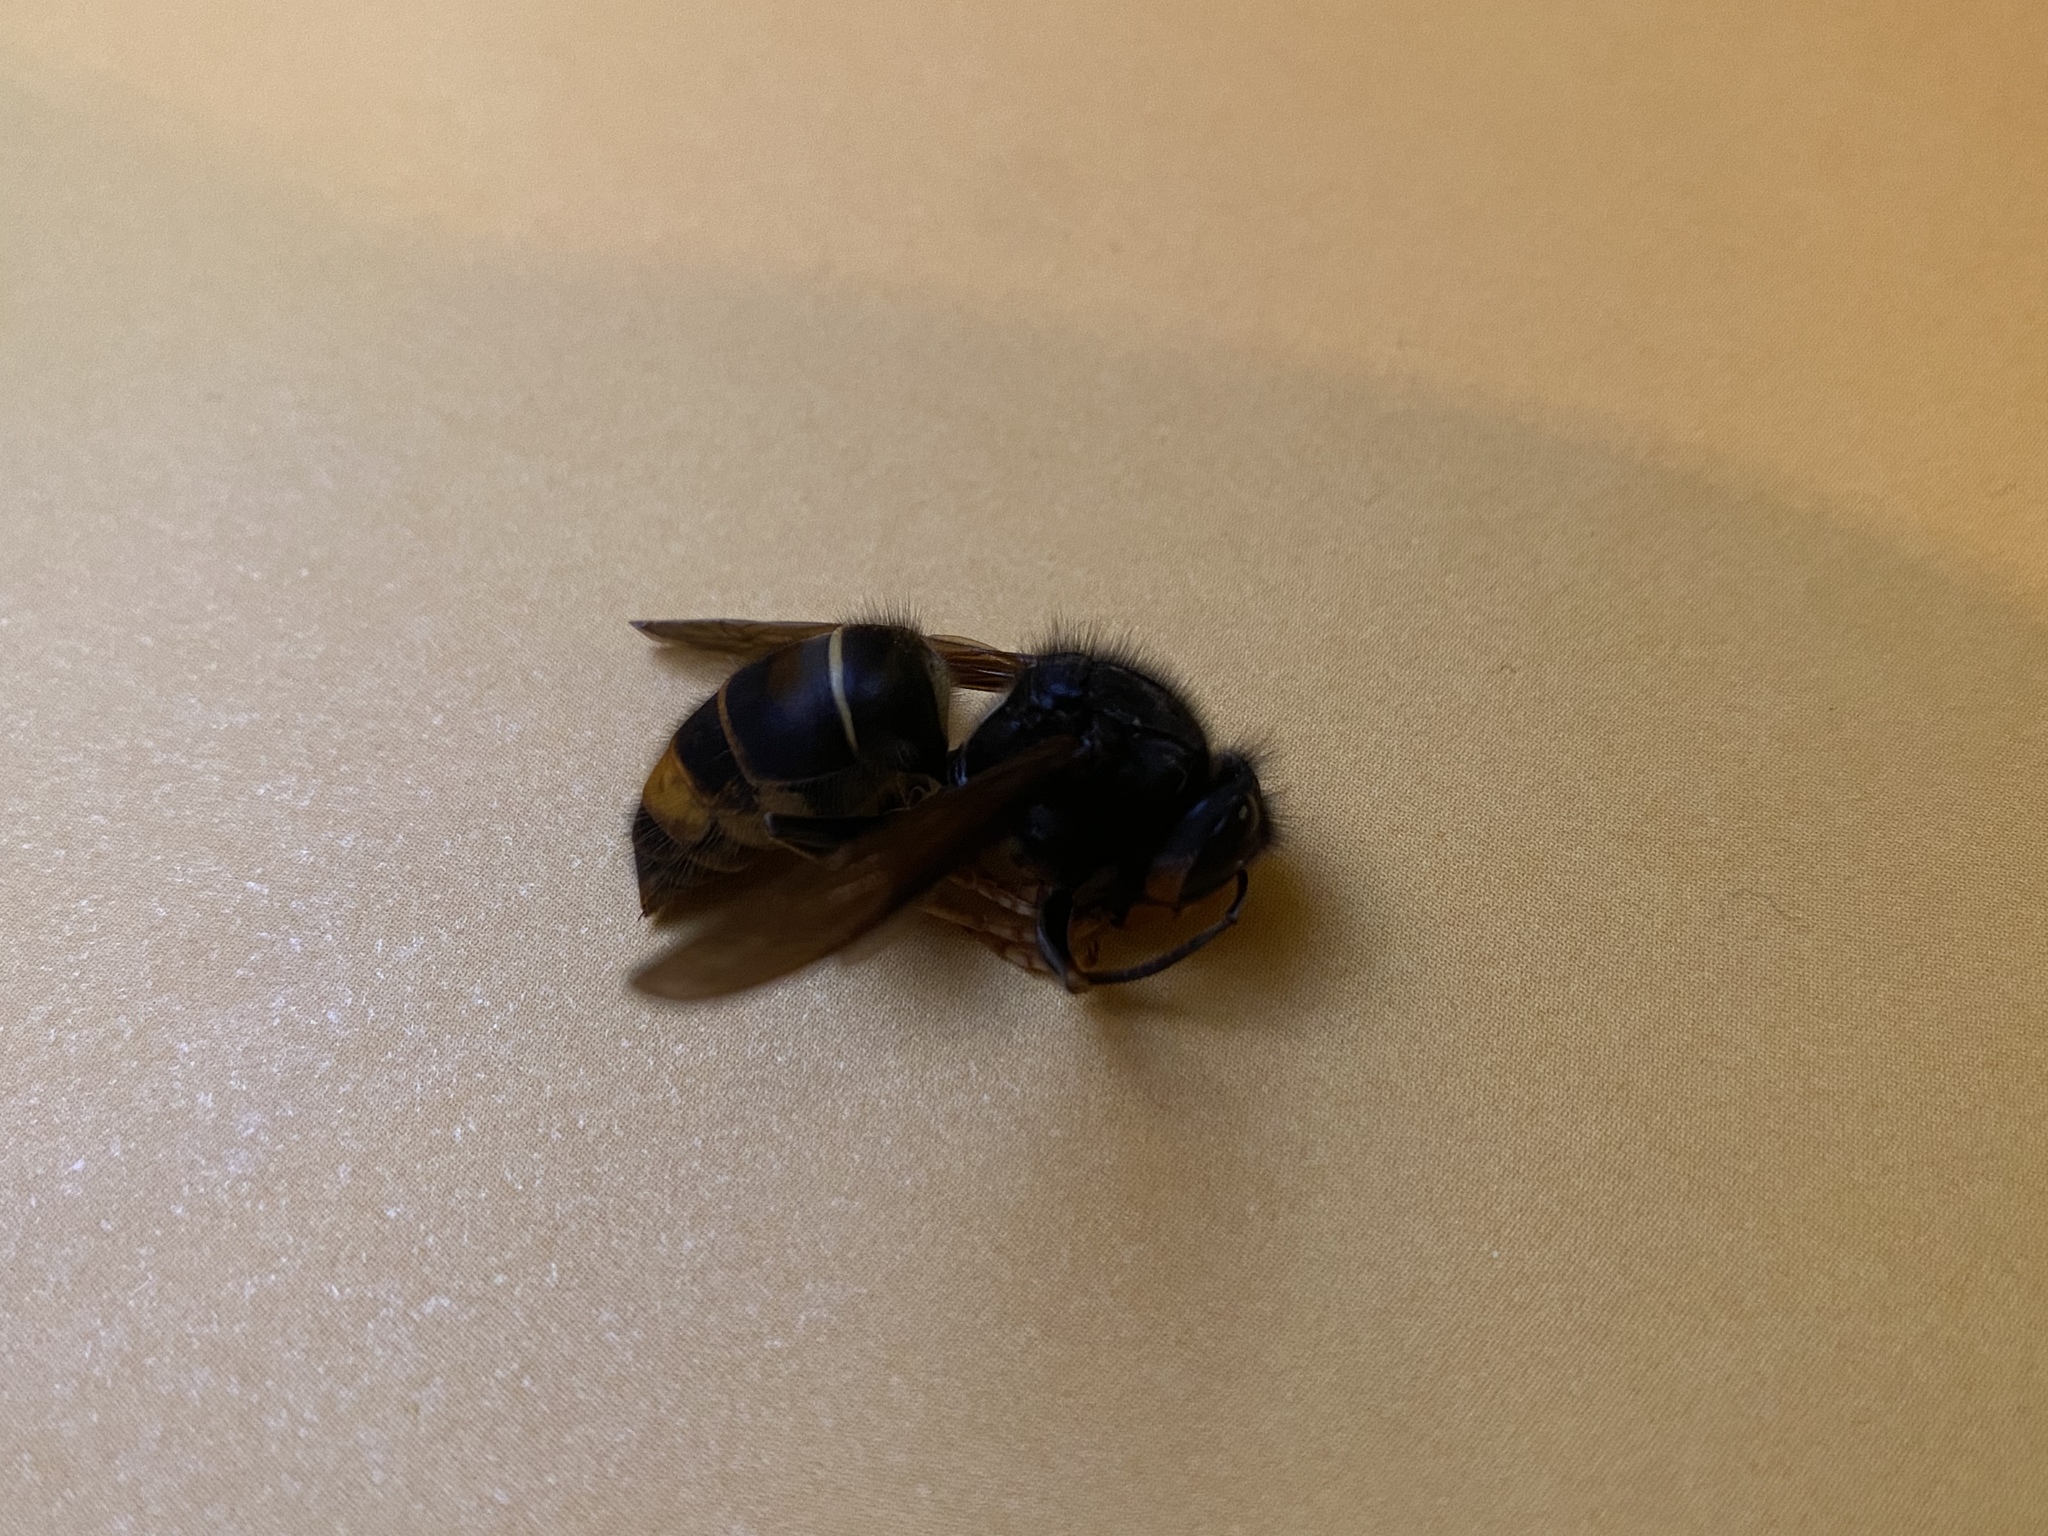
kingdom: Animalia
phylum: Arthropoda
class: Insecta
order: Hymenoptera
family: Vespidae
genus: Vespa
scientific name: Vespa velutina
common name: Asian hornet
